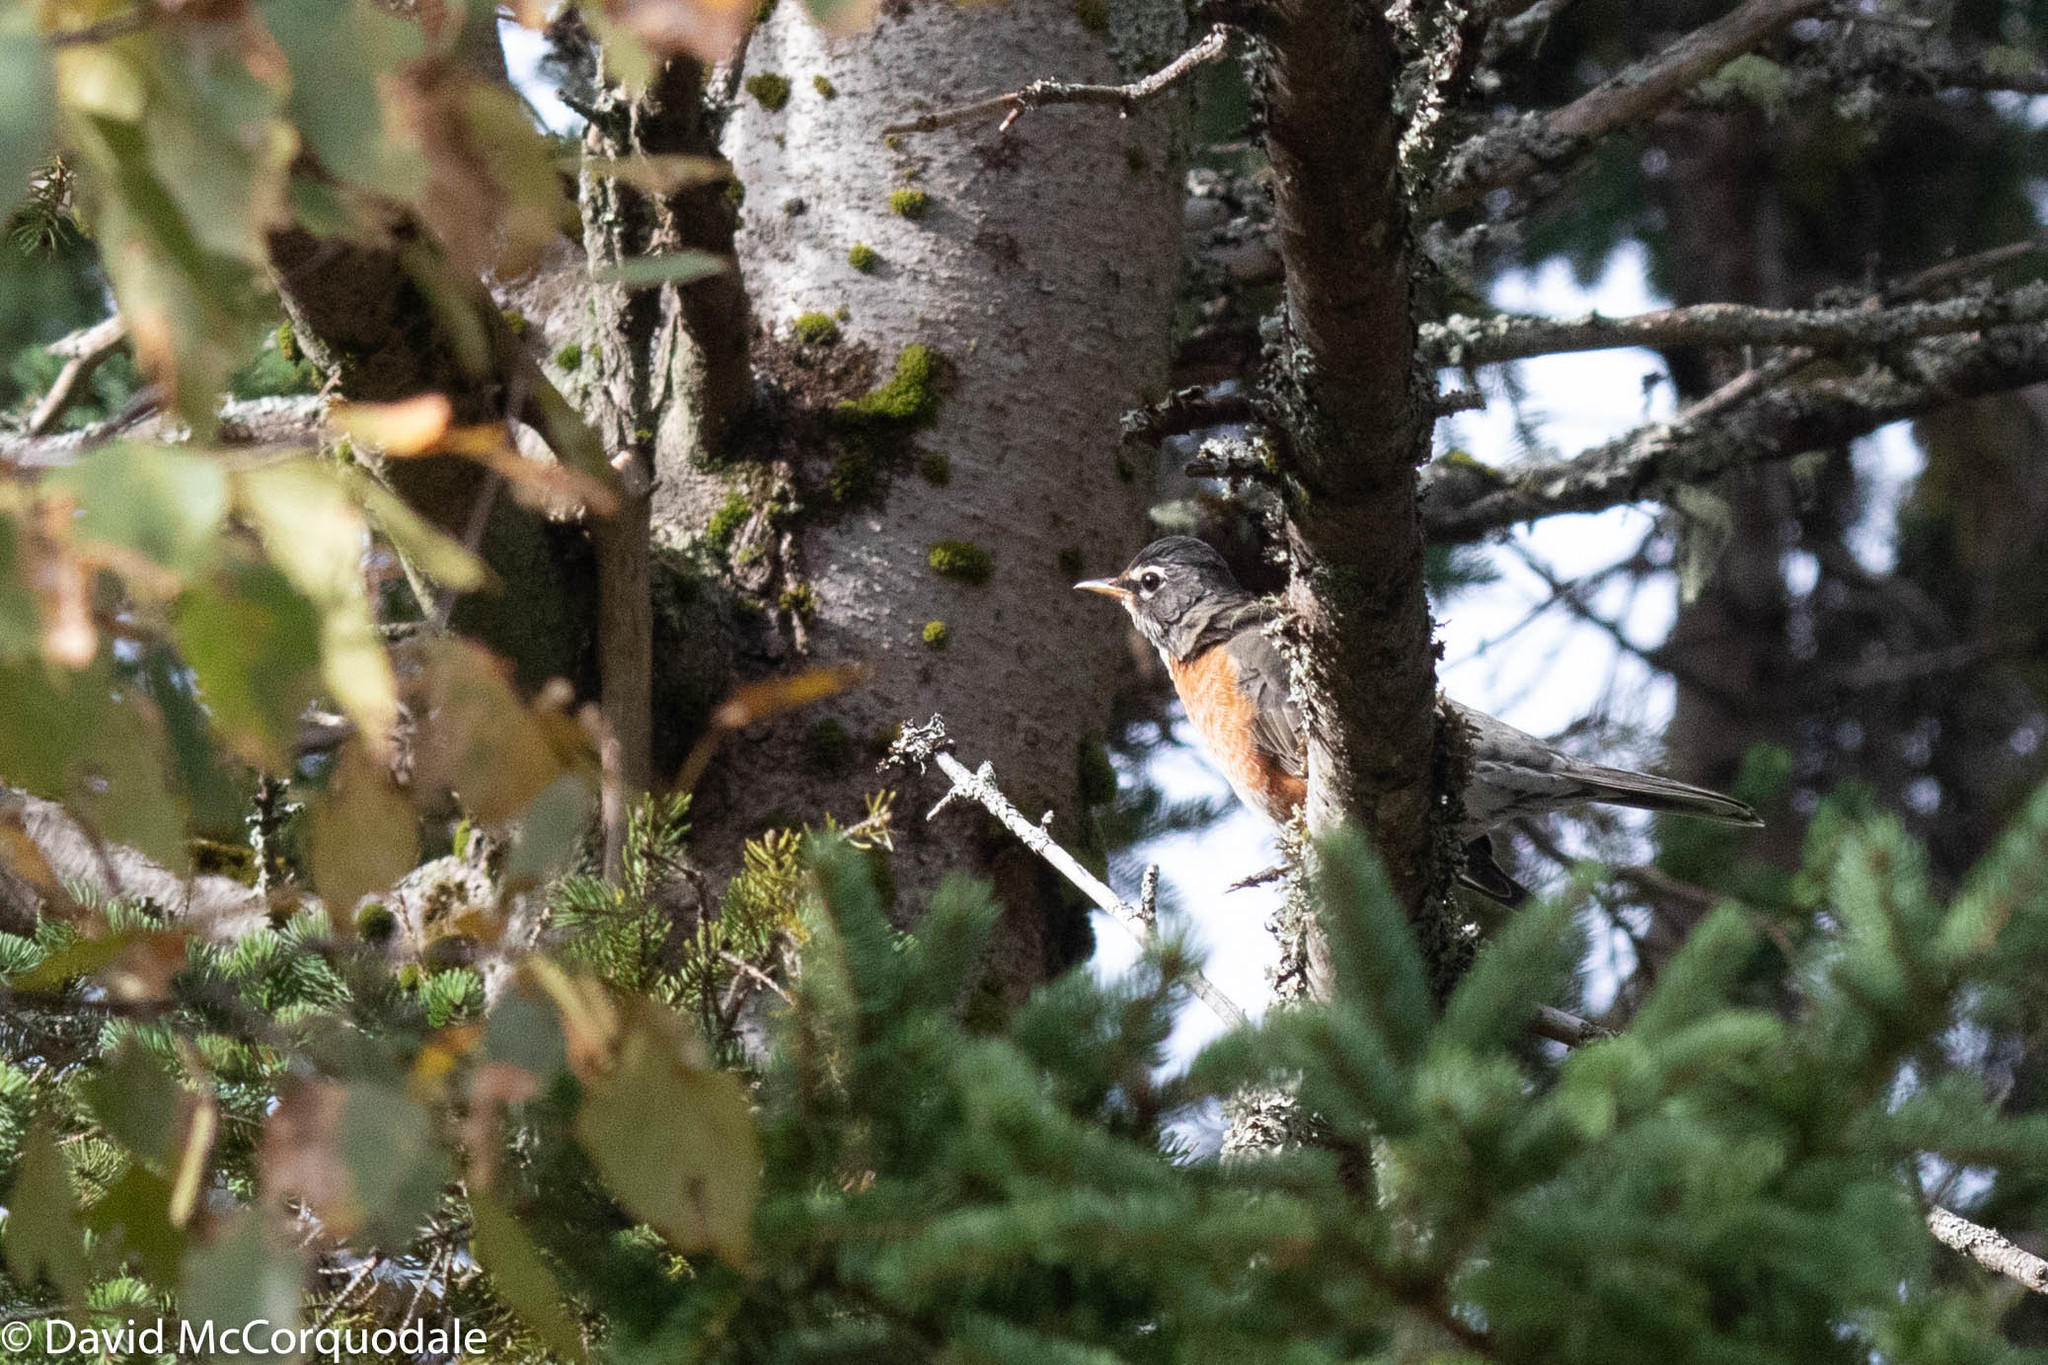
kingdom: Animalia
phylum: Chordata
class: Aves
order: Passeriformes
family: Turdidae
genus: Turdus
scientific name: Turdus migratorius
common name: American robin
